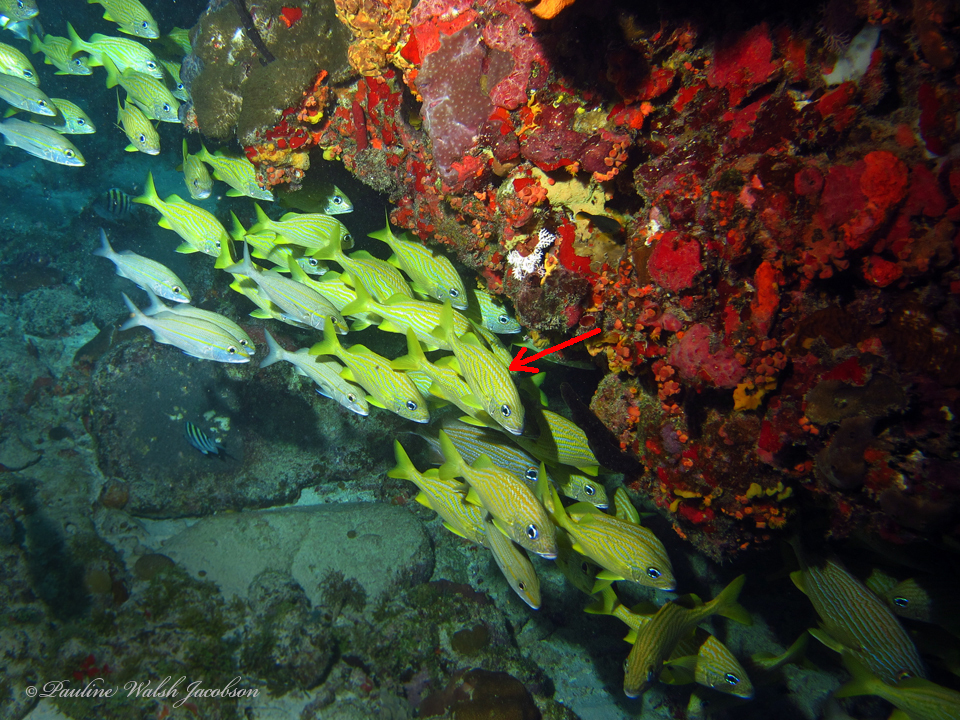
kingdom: Animalia
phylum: Chordata
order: Perciformes
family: Haemulidae
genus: Haemulon
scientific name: Haemulon flavolineatum
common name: French grunt
